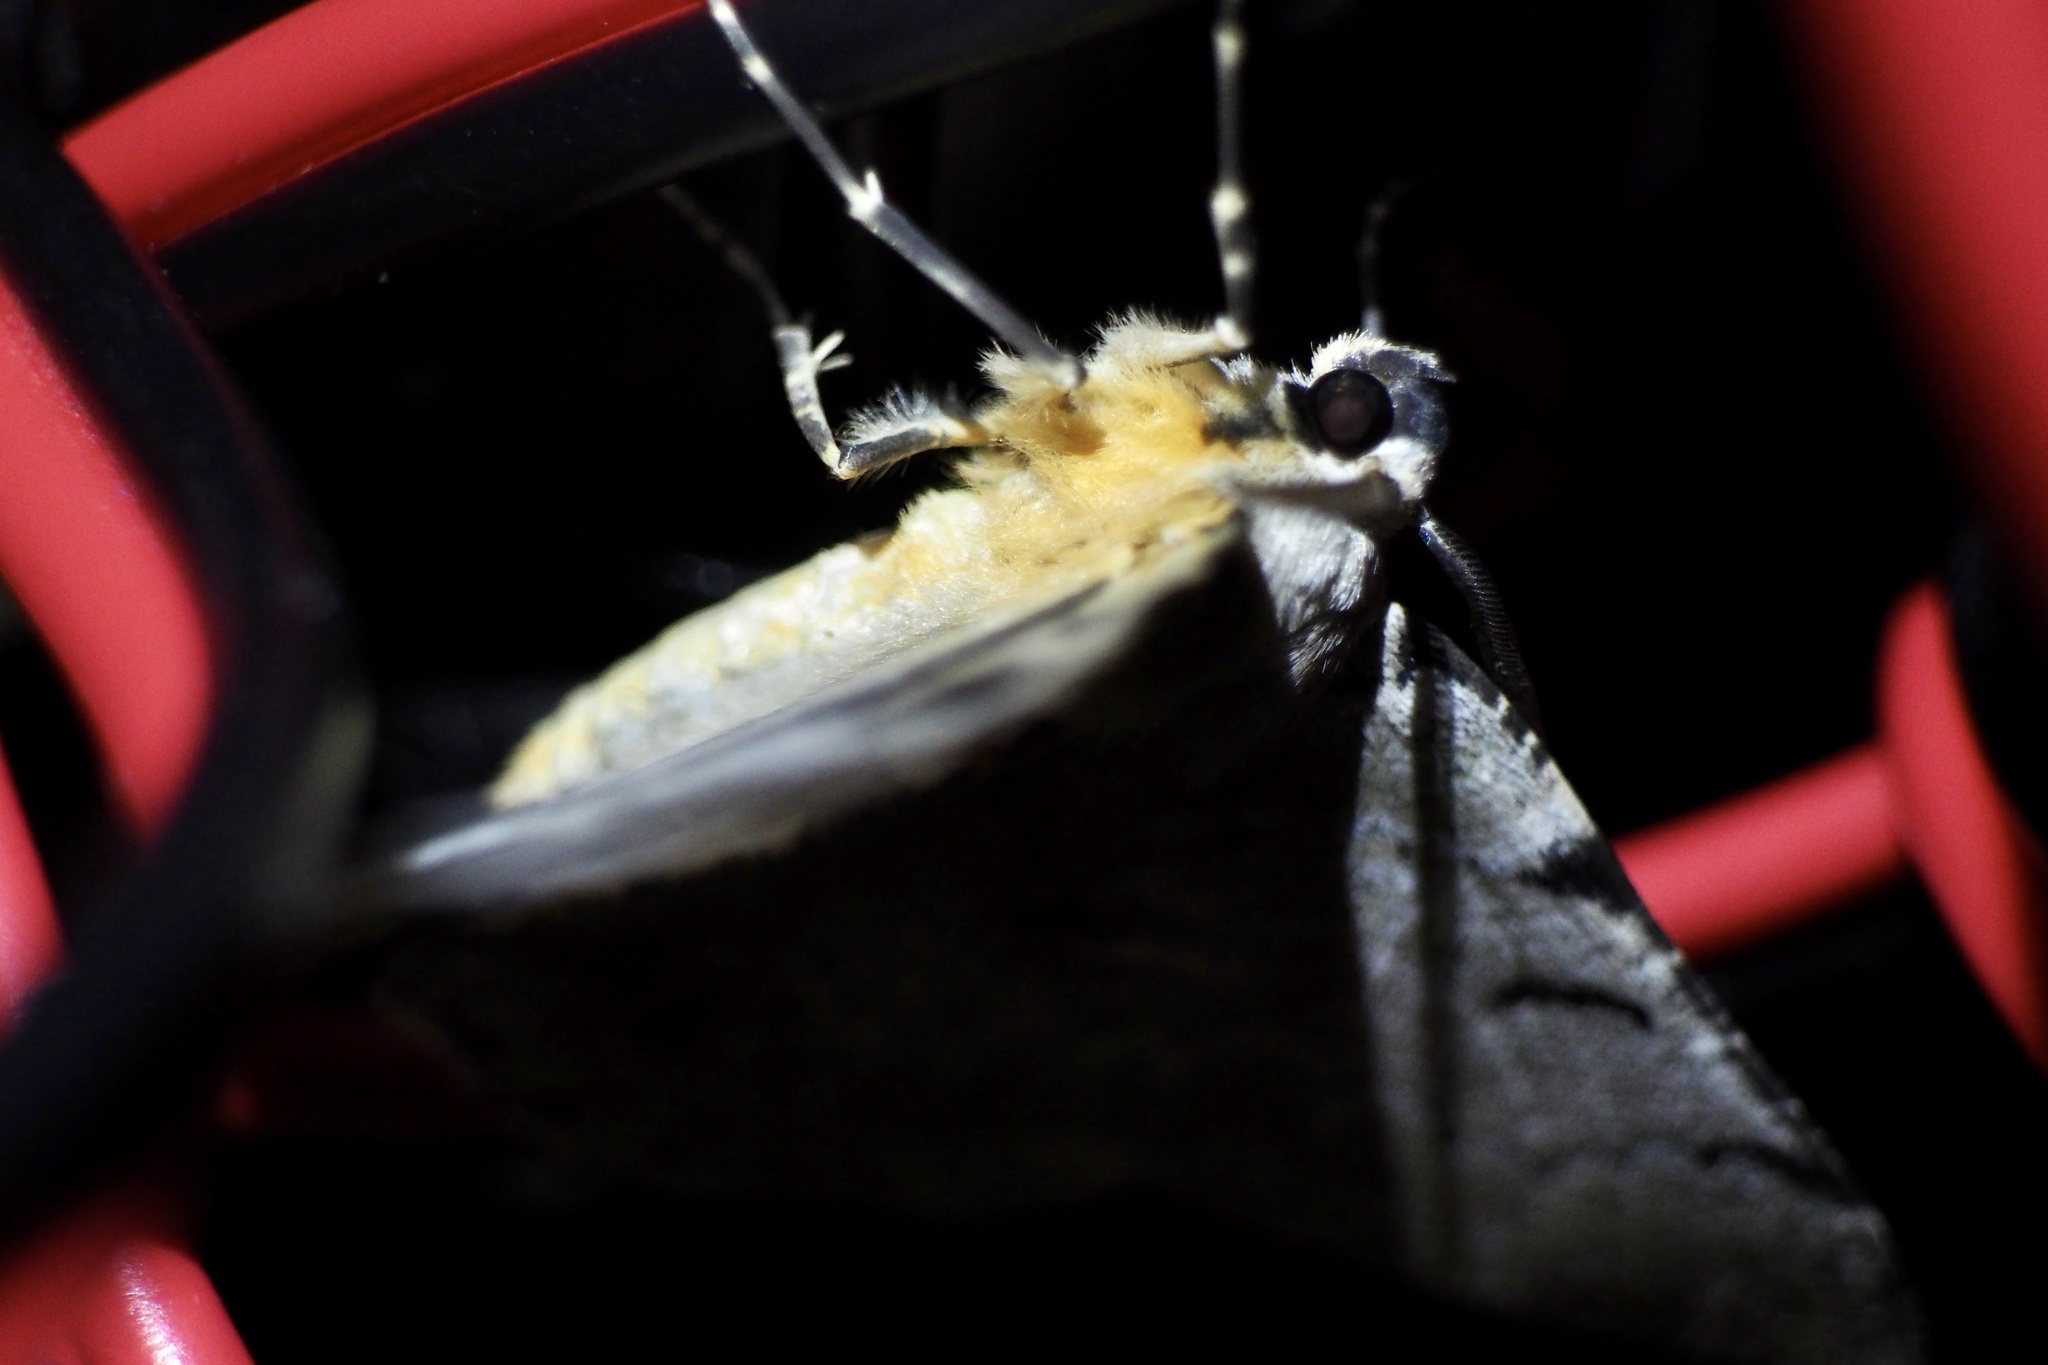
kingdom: Animalia
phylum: Arthropoda
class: Insecta
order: Lepidoptera
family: Geometridae
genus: Pachista
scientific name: Pachista superans
